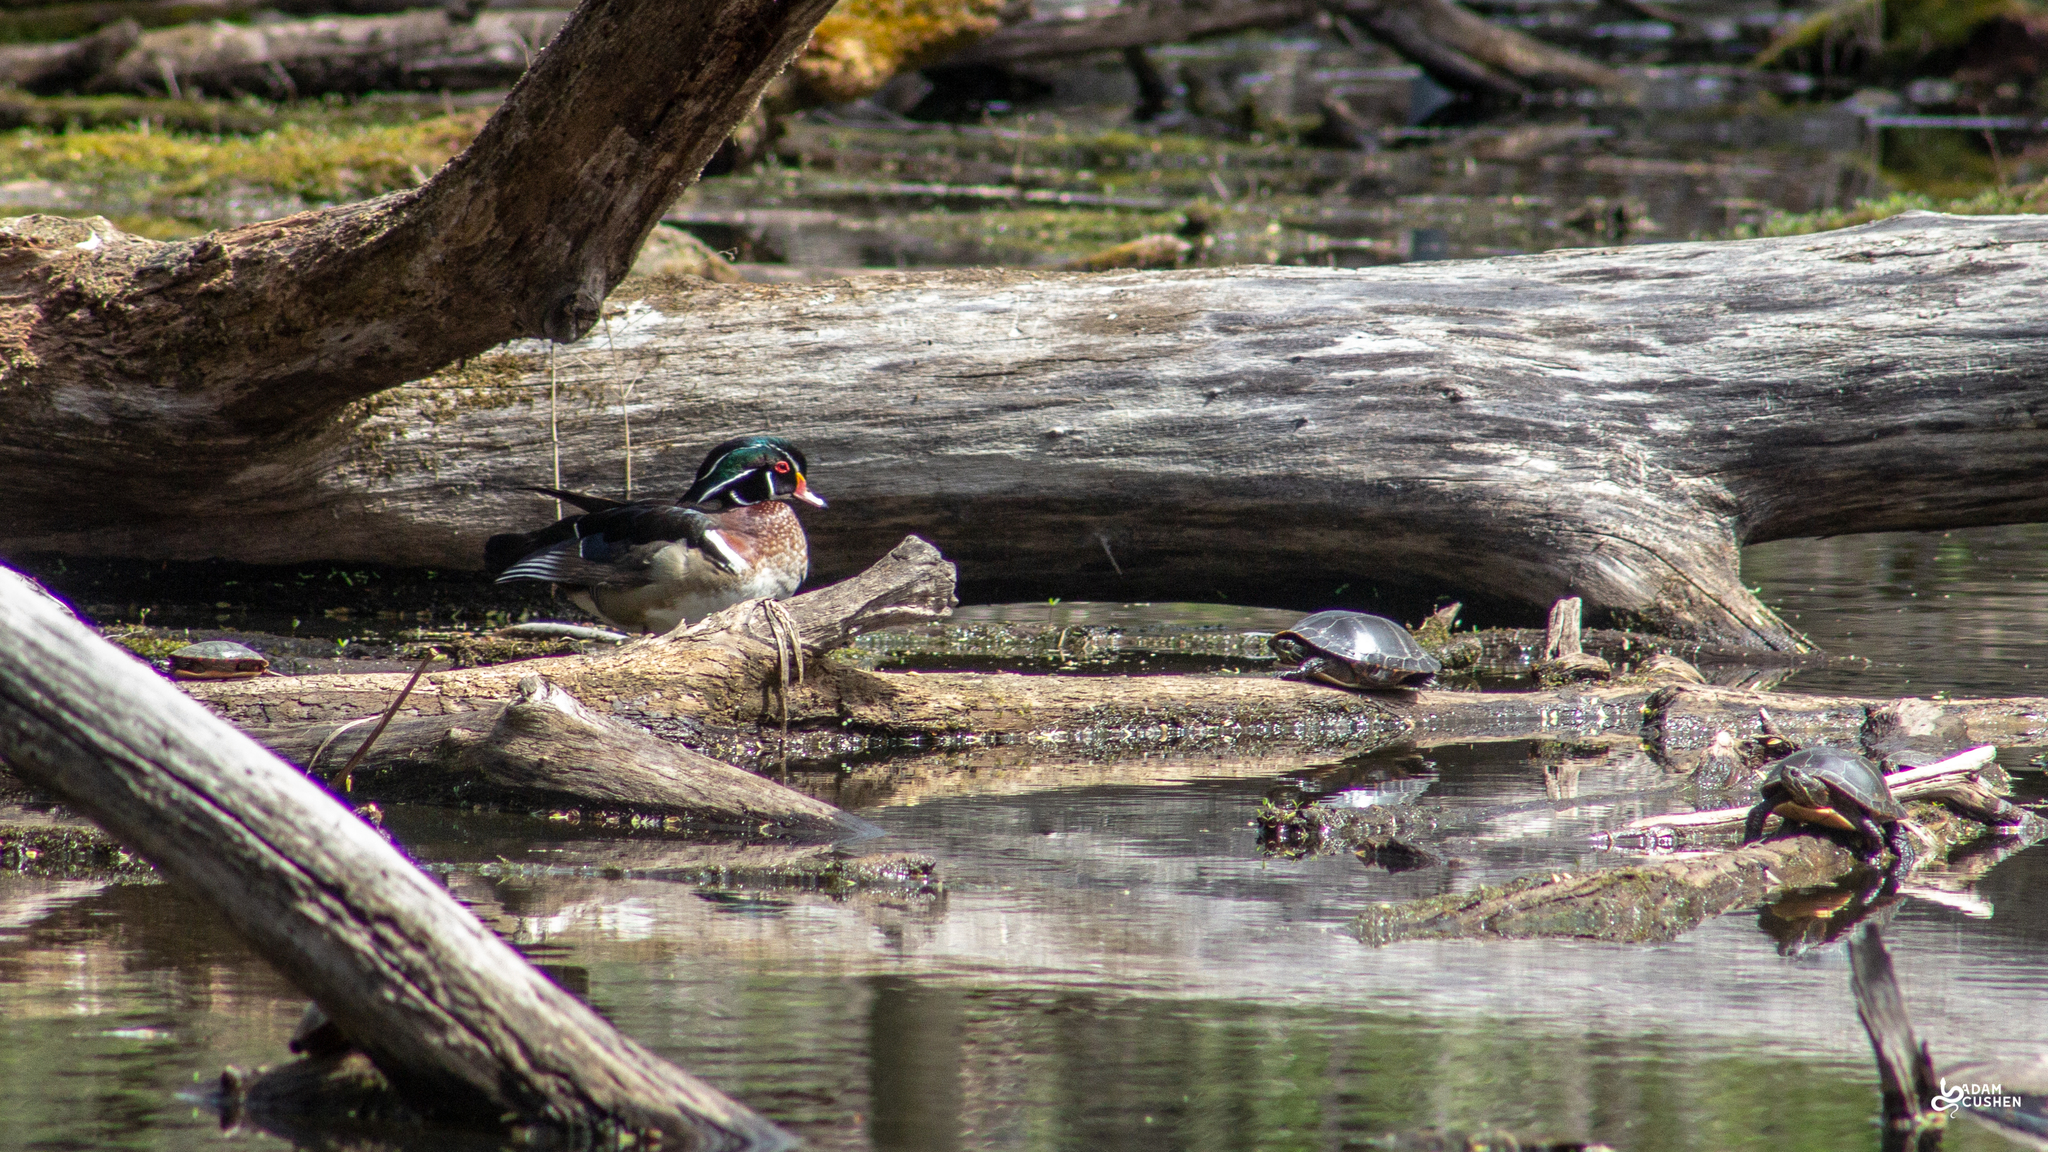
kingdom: Animalia
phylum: Chordata
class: Aves
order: Anseriformes
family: Anatidae
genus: Aix
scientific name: Aix sponsa
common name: Wood duck
